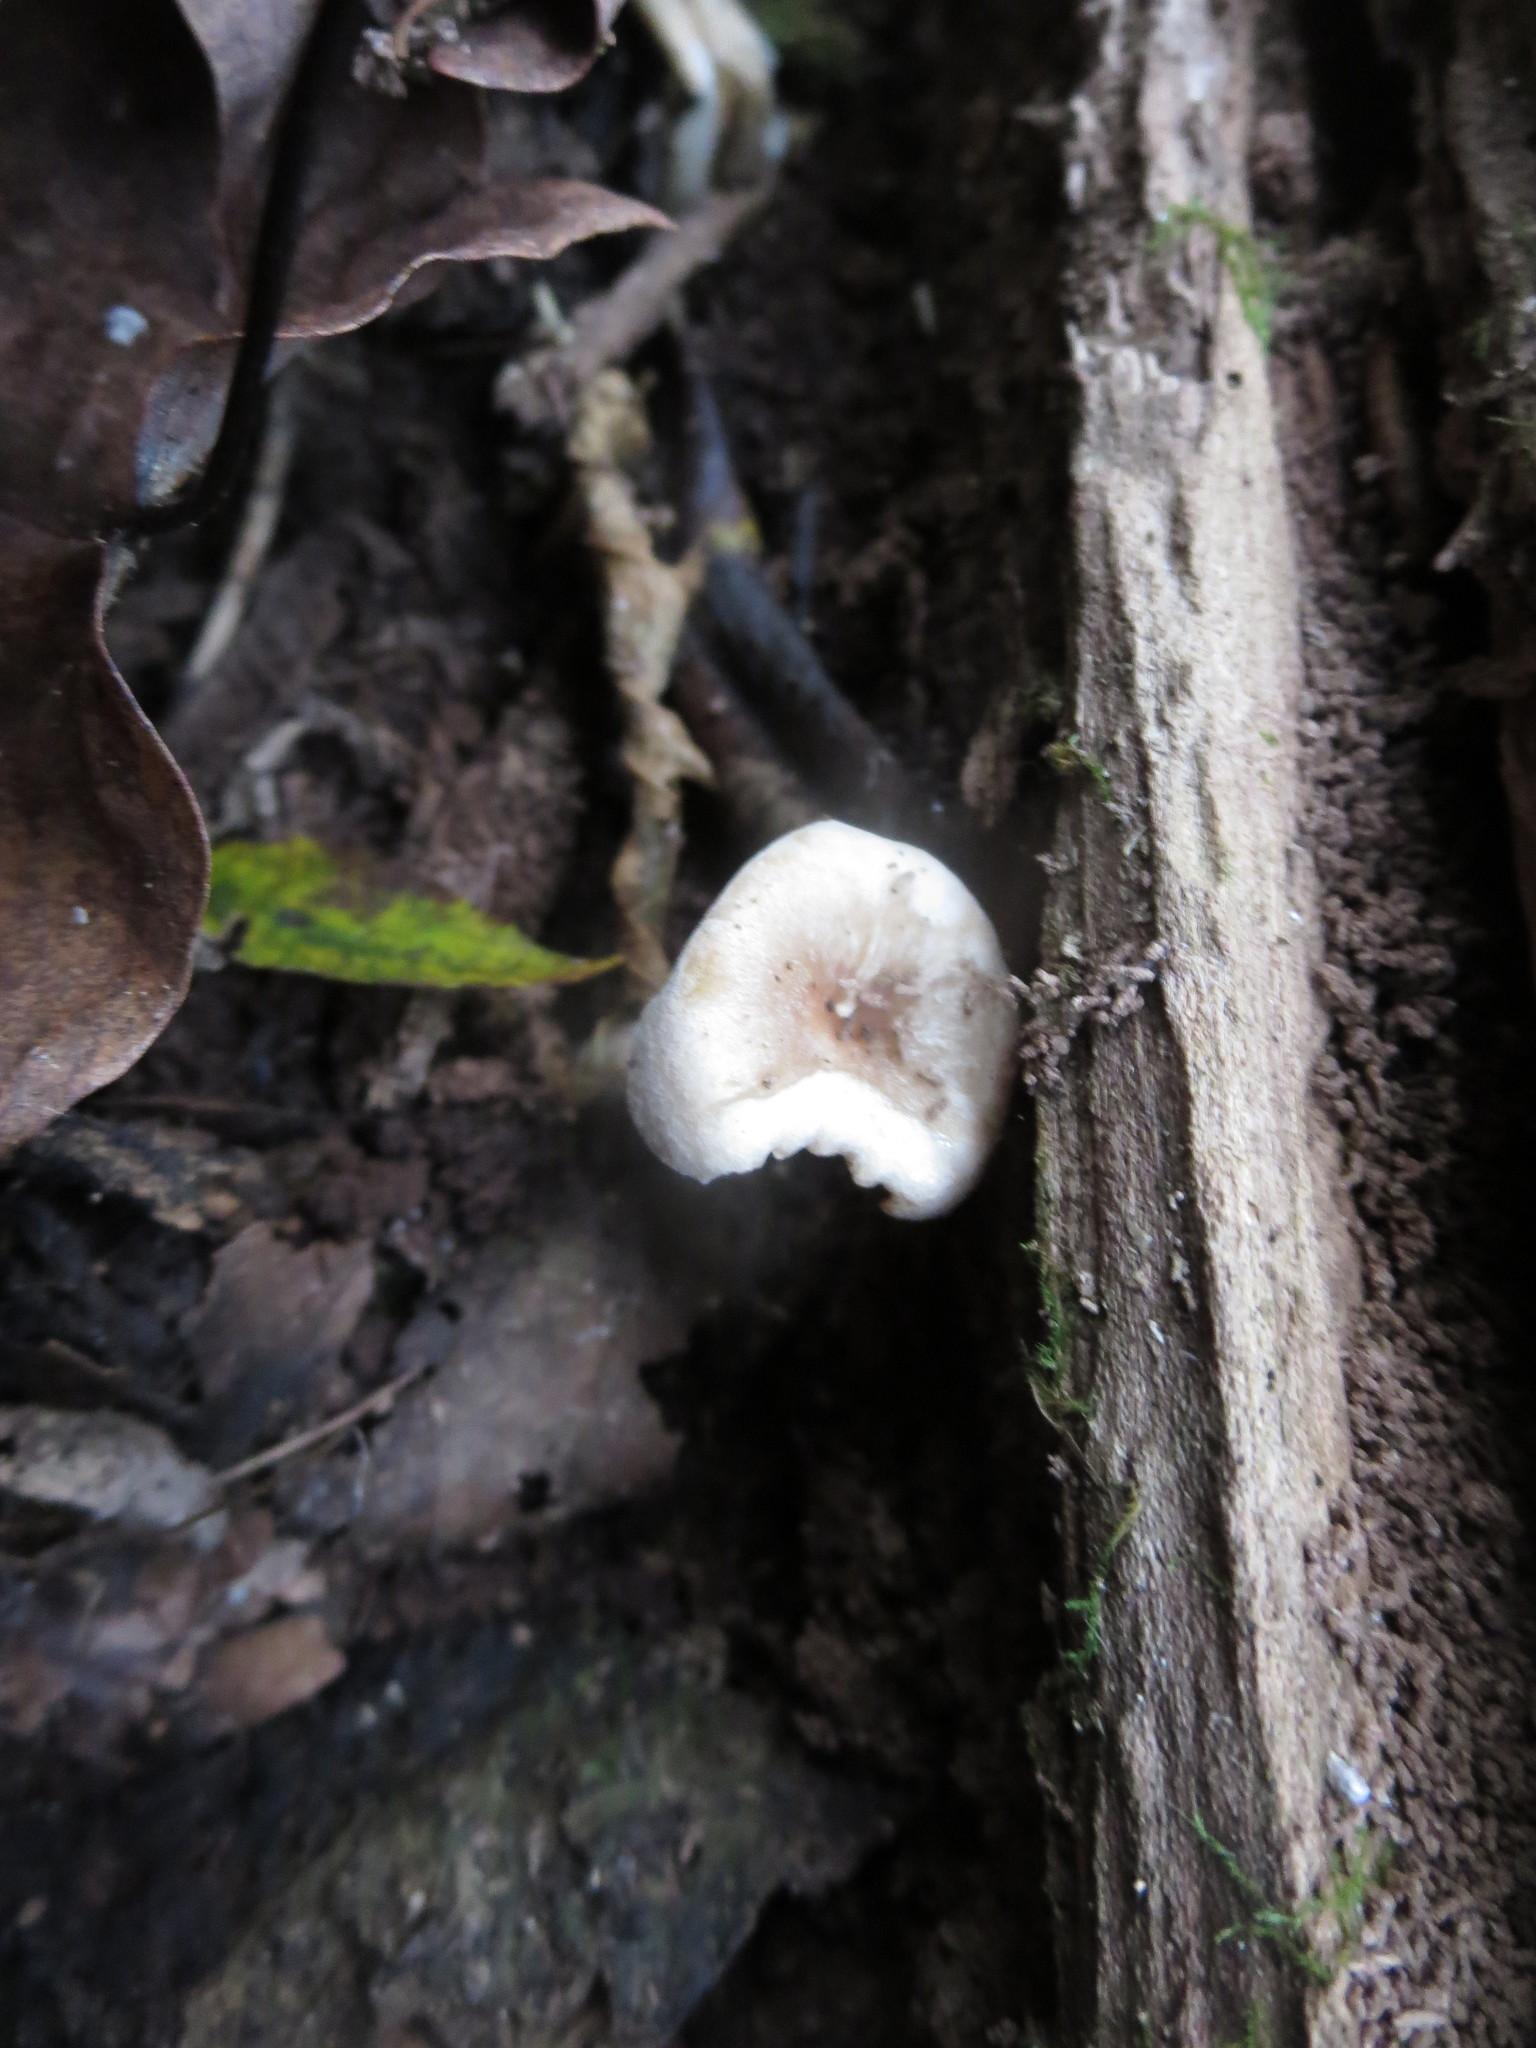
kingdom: Fungi
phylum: Basidiomycota
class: Agaricomycetes
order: Agaricales
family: Tricholomataceae
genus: Pseudoomphalina
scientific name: Pseudoomphalina compressipes
